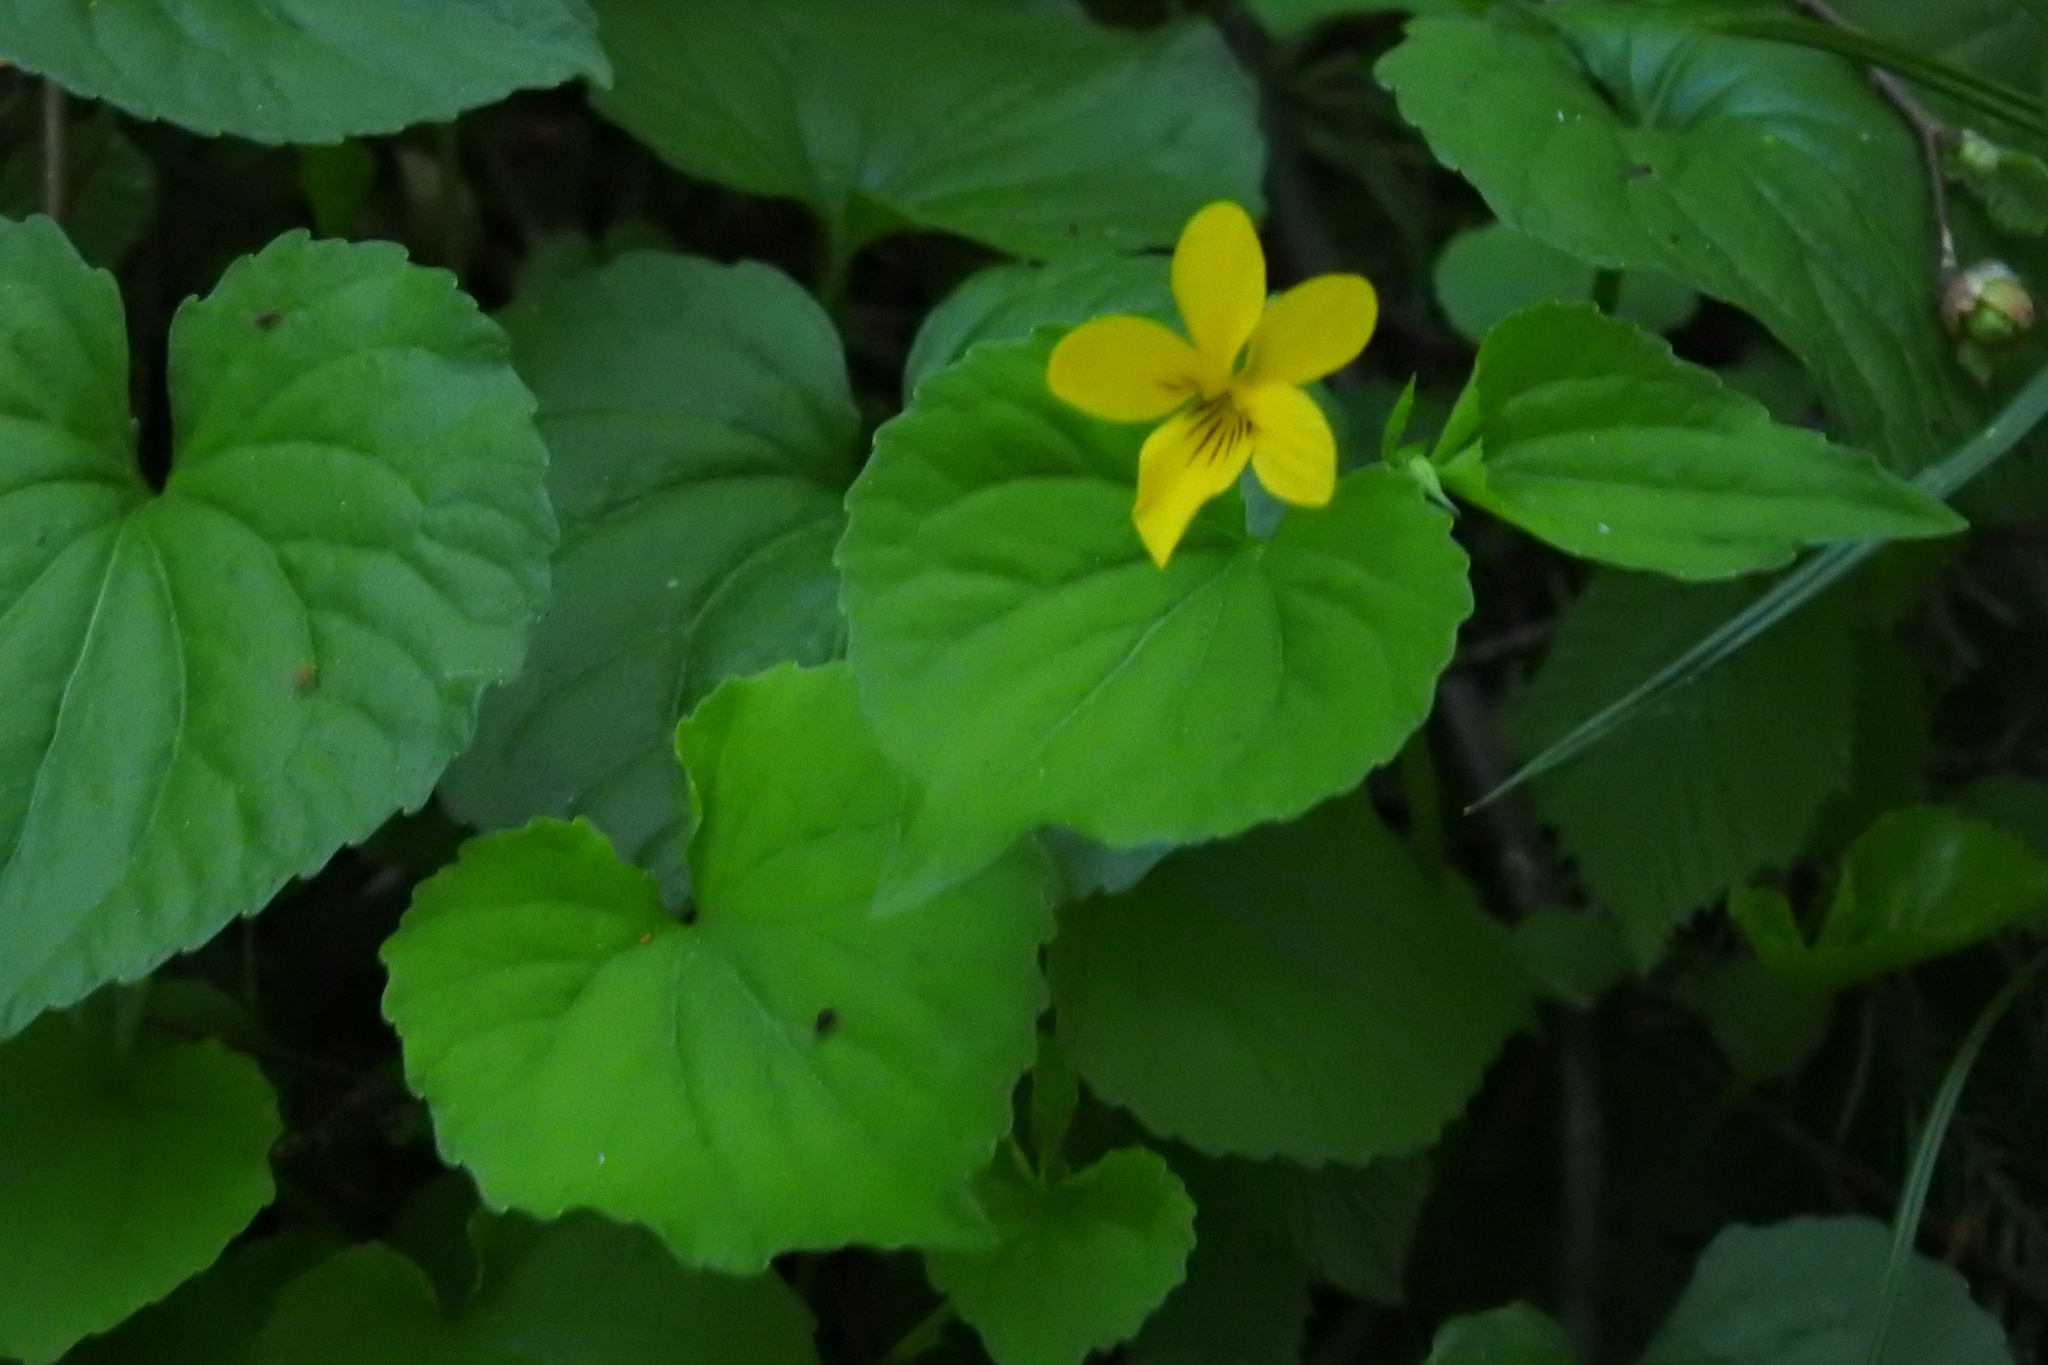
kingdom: Plantae
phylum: Tracheophyta
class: Magnoliopsida
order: Malpighiales
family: Violaceae
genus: Viola
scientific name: Viola glabella
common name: Stream violet
